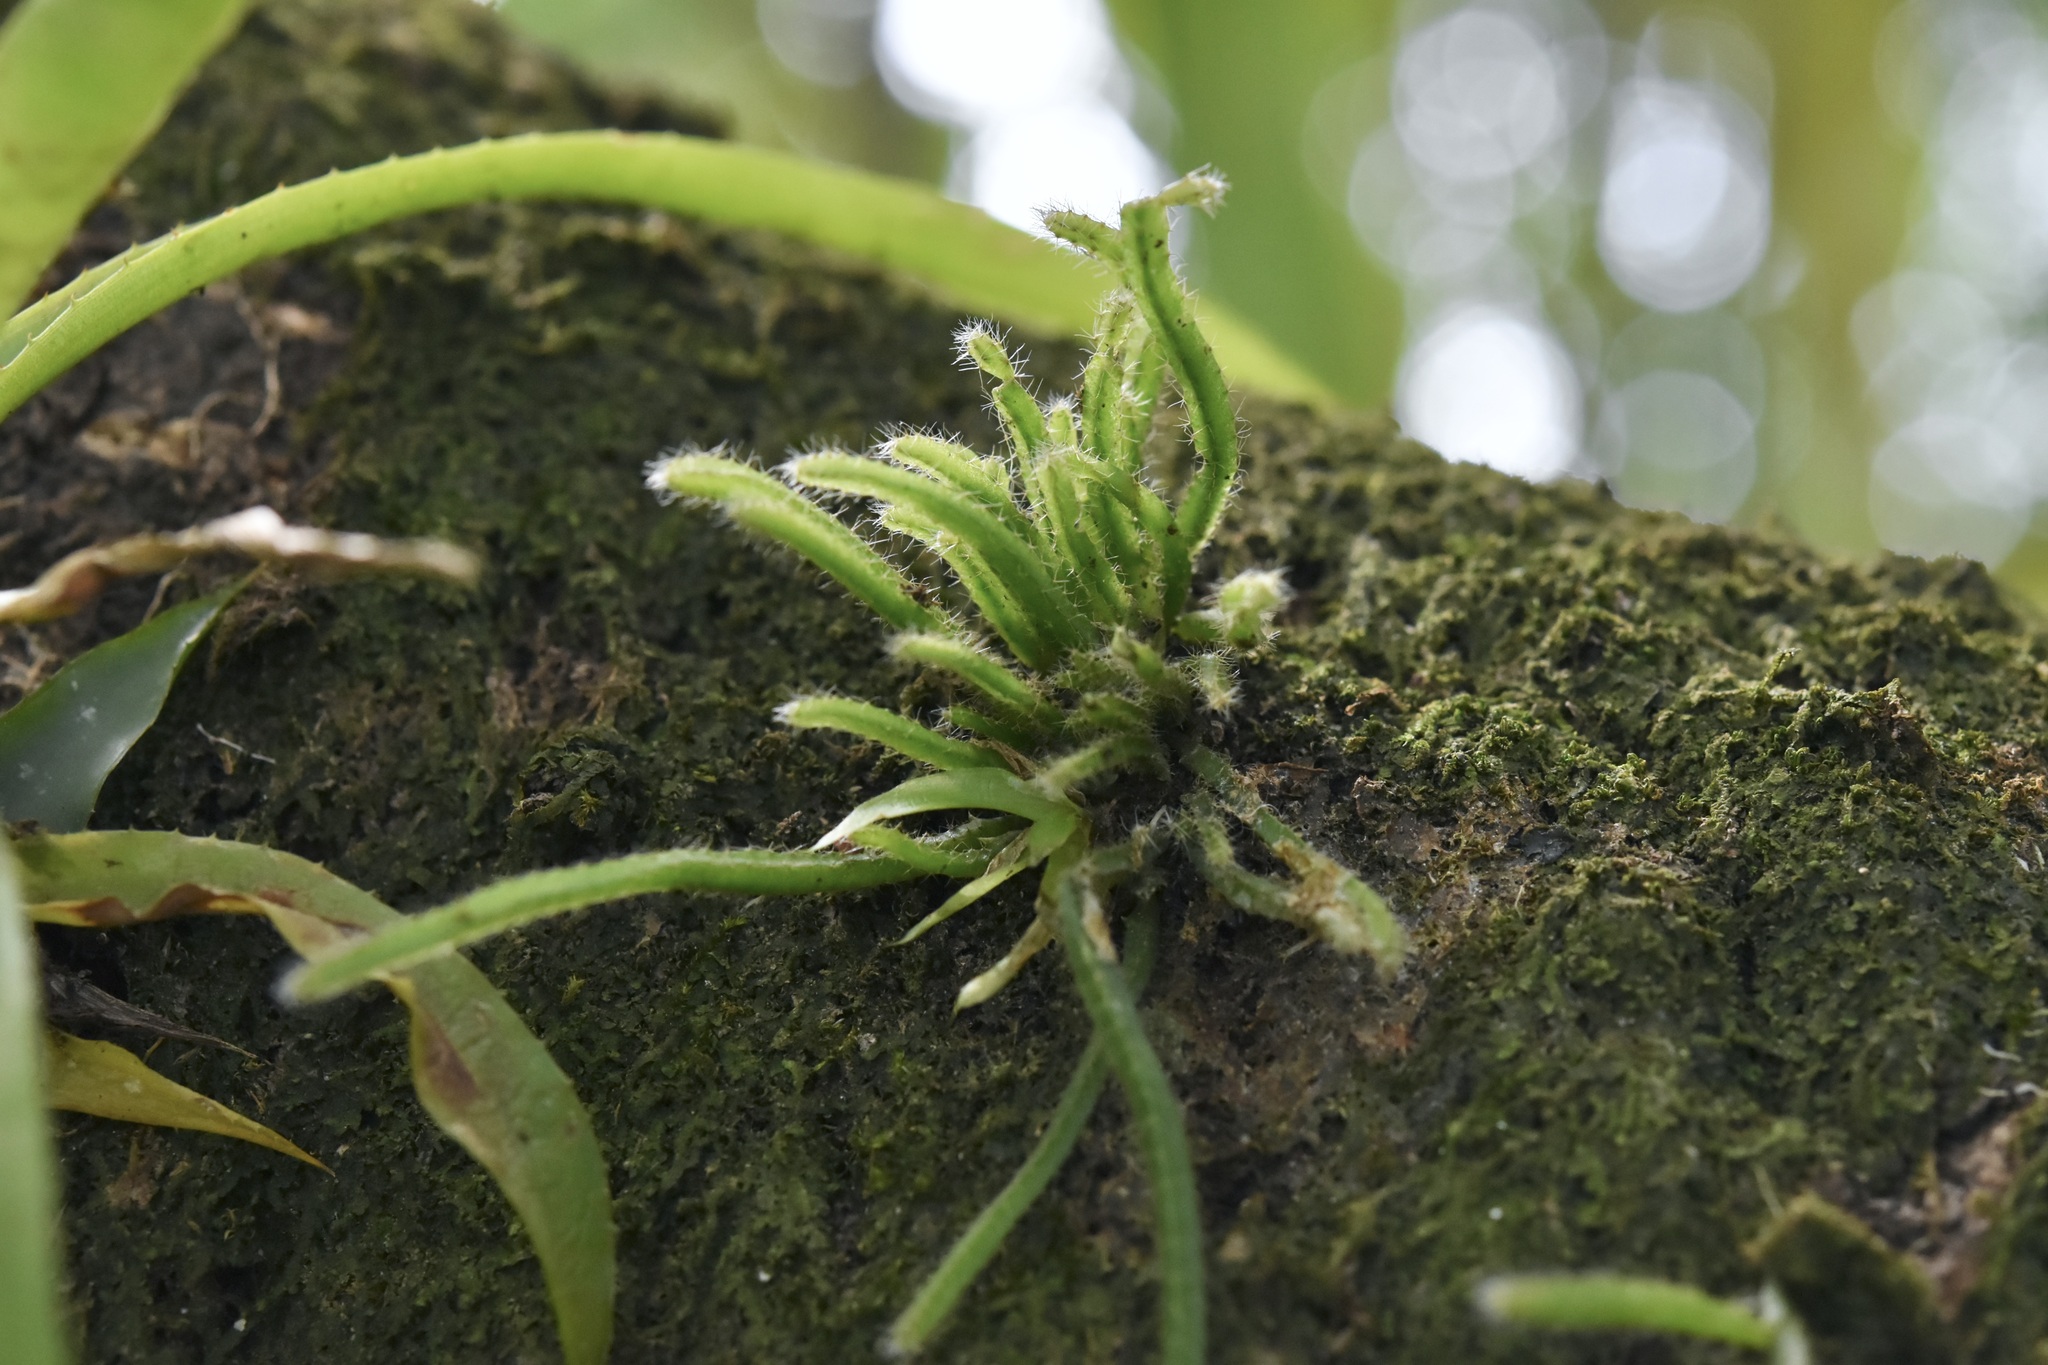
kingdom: Plantae
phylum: Tracheophyta
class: Magnoliopsida
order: Caryophyllales
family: Cactaceae
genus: Rhipsalis
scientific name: Rhipsalis baccifera
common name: Mistletoe cactus
